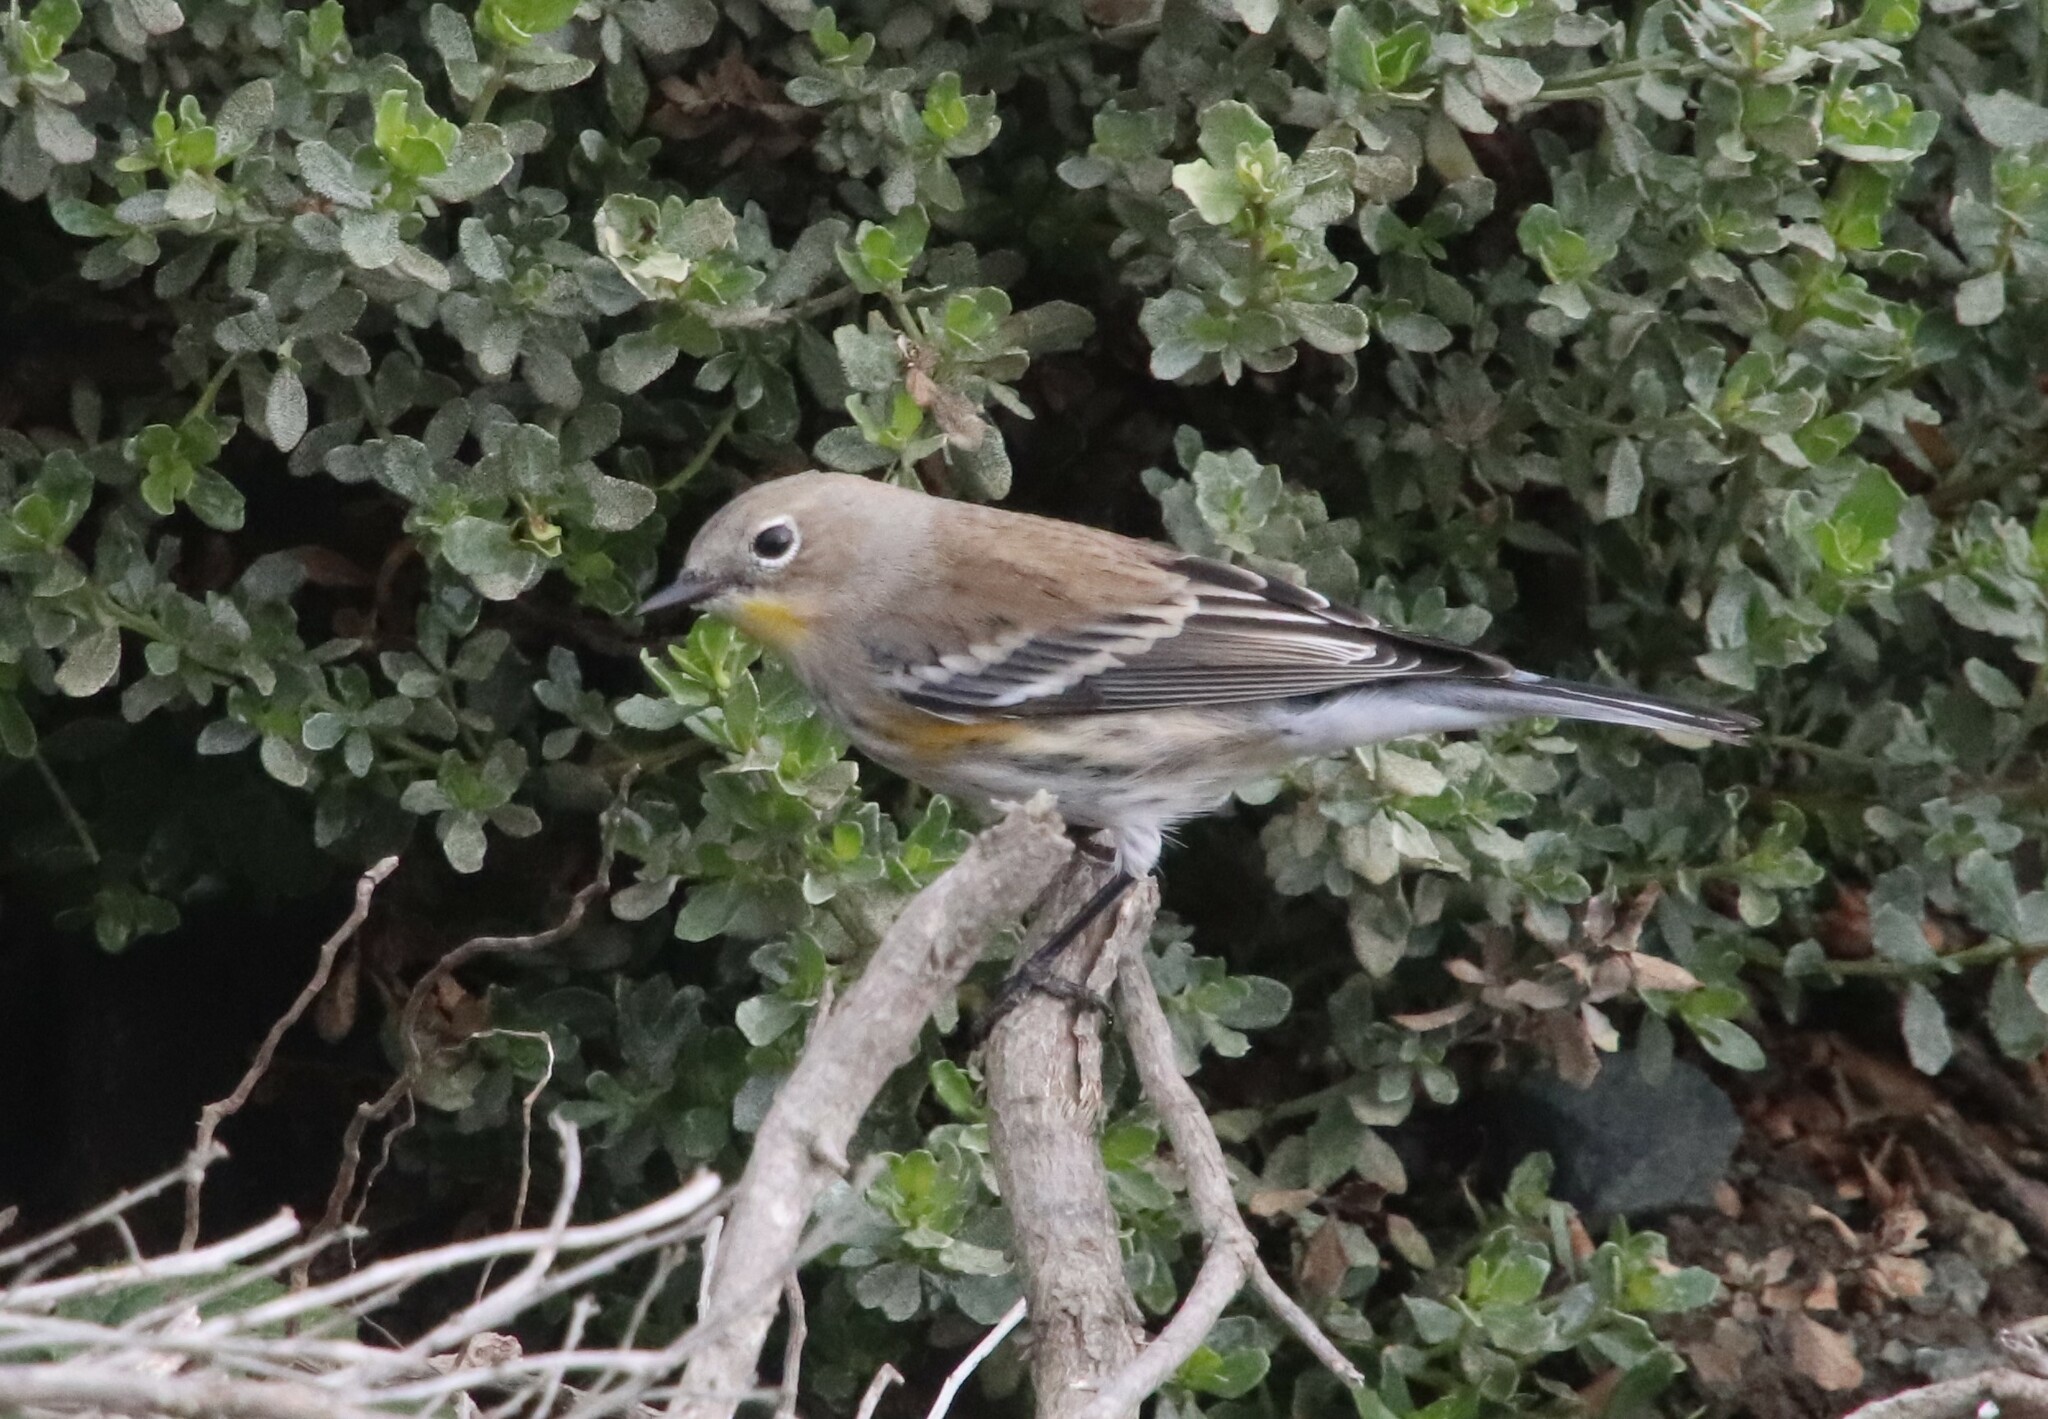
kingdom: Animalia
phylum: Chordata
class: Aves
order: Passeriformes
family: Parulidae
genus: Setophaga
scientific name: Setophaga coronata
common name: Myrtle warbler
